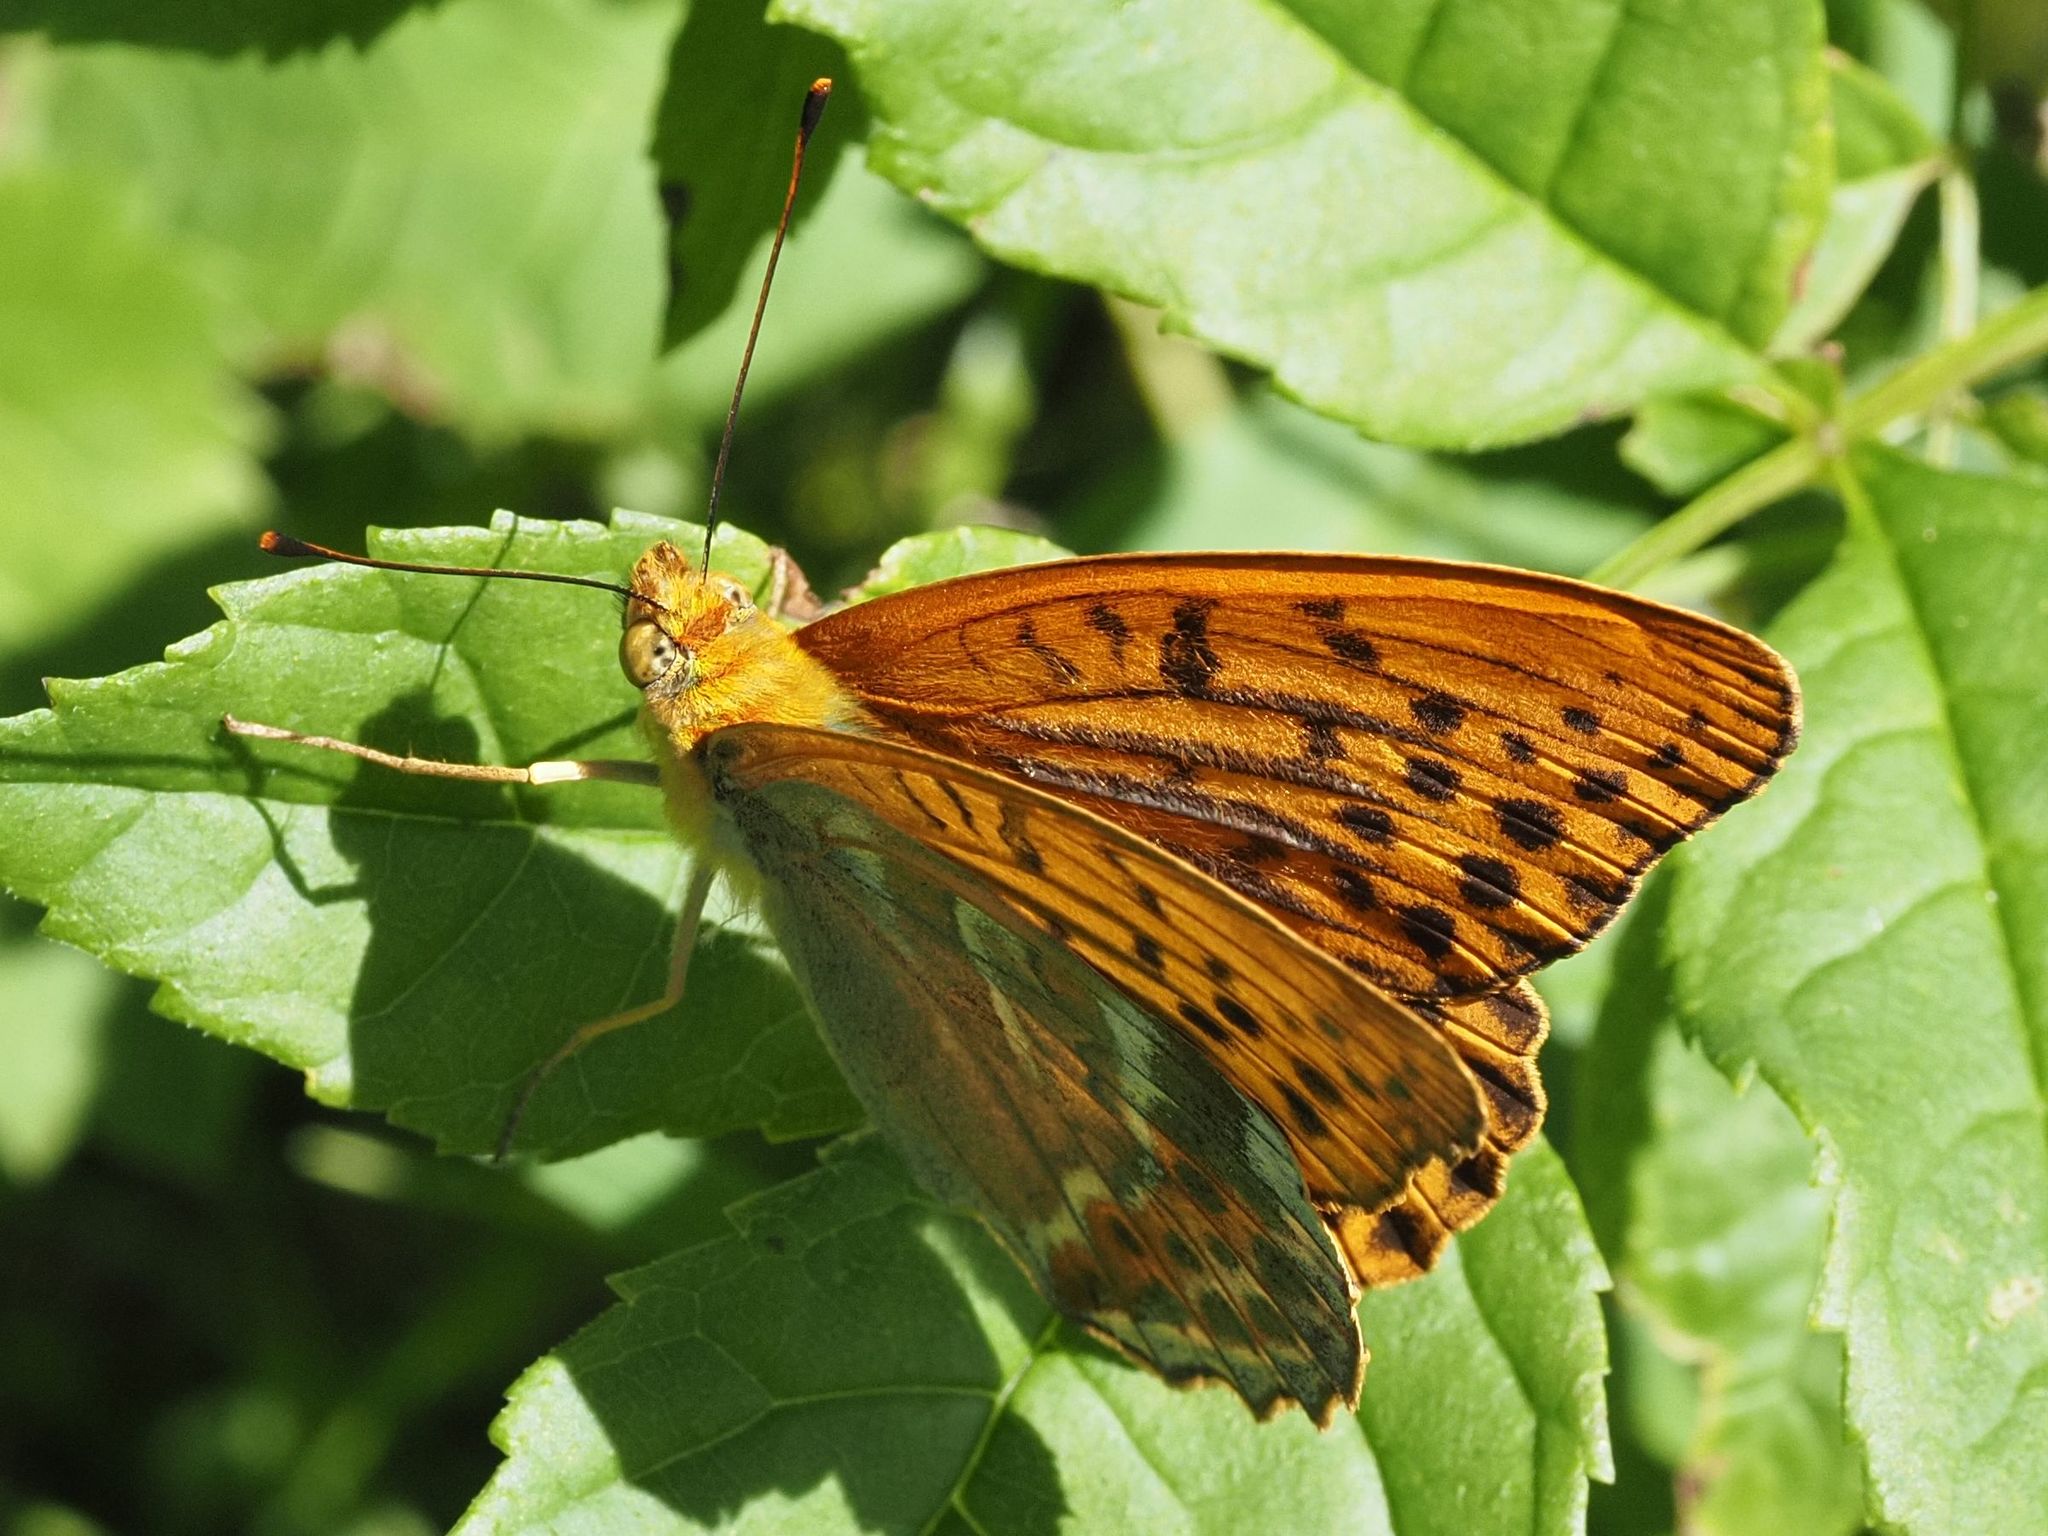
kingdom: Animalia
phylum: Arthropoda
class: Insecta
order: Lepidoptera
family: Nymphalidae
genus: Argynnis
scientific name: Argynnis paphia
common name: Silver-washed fritillary
